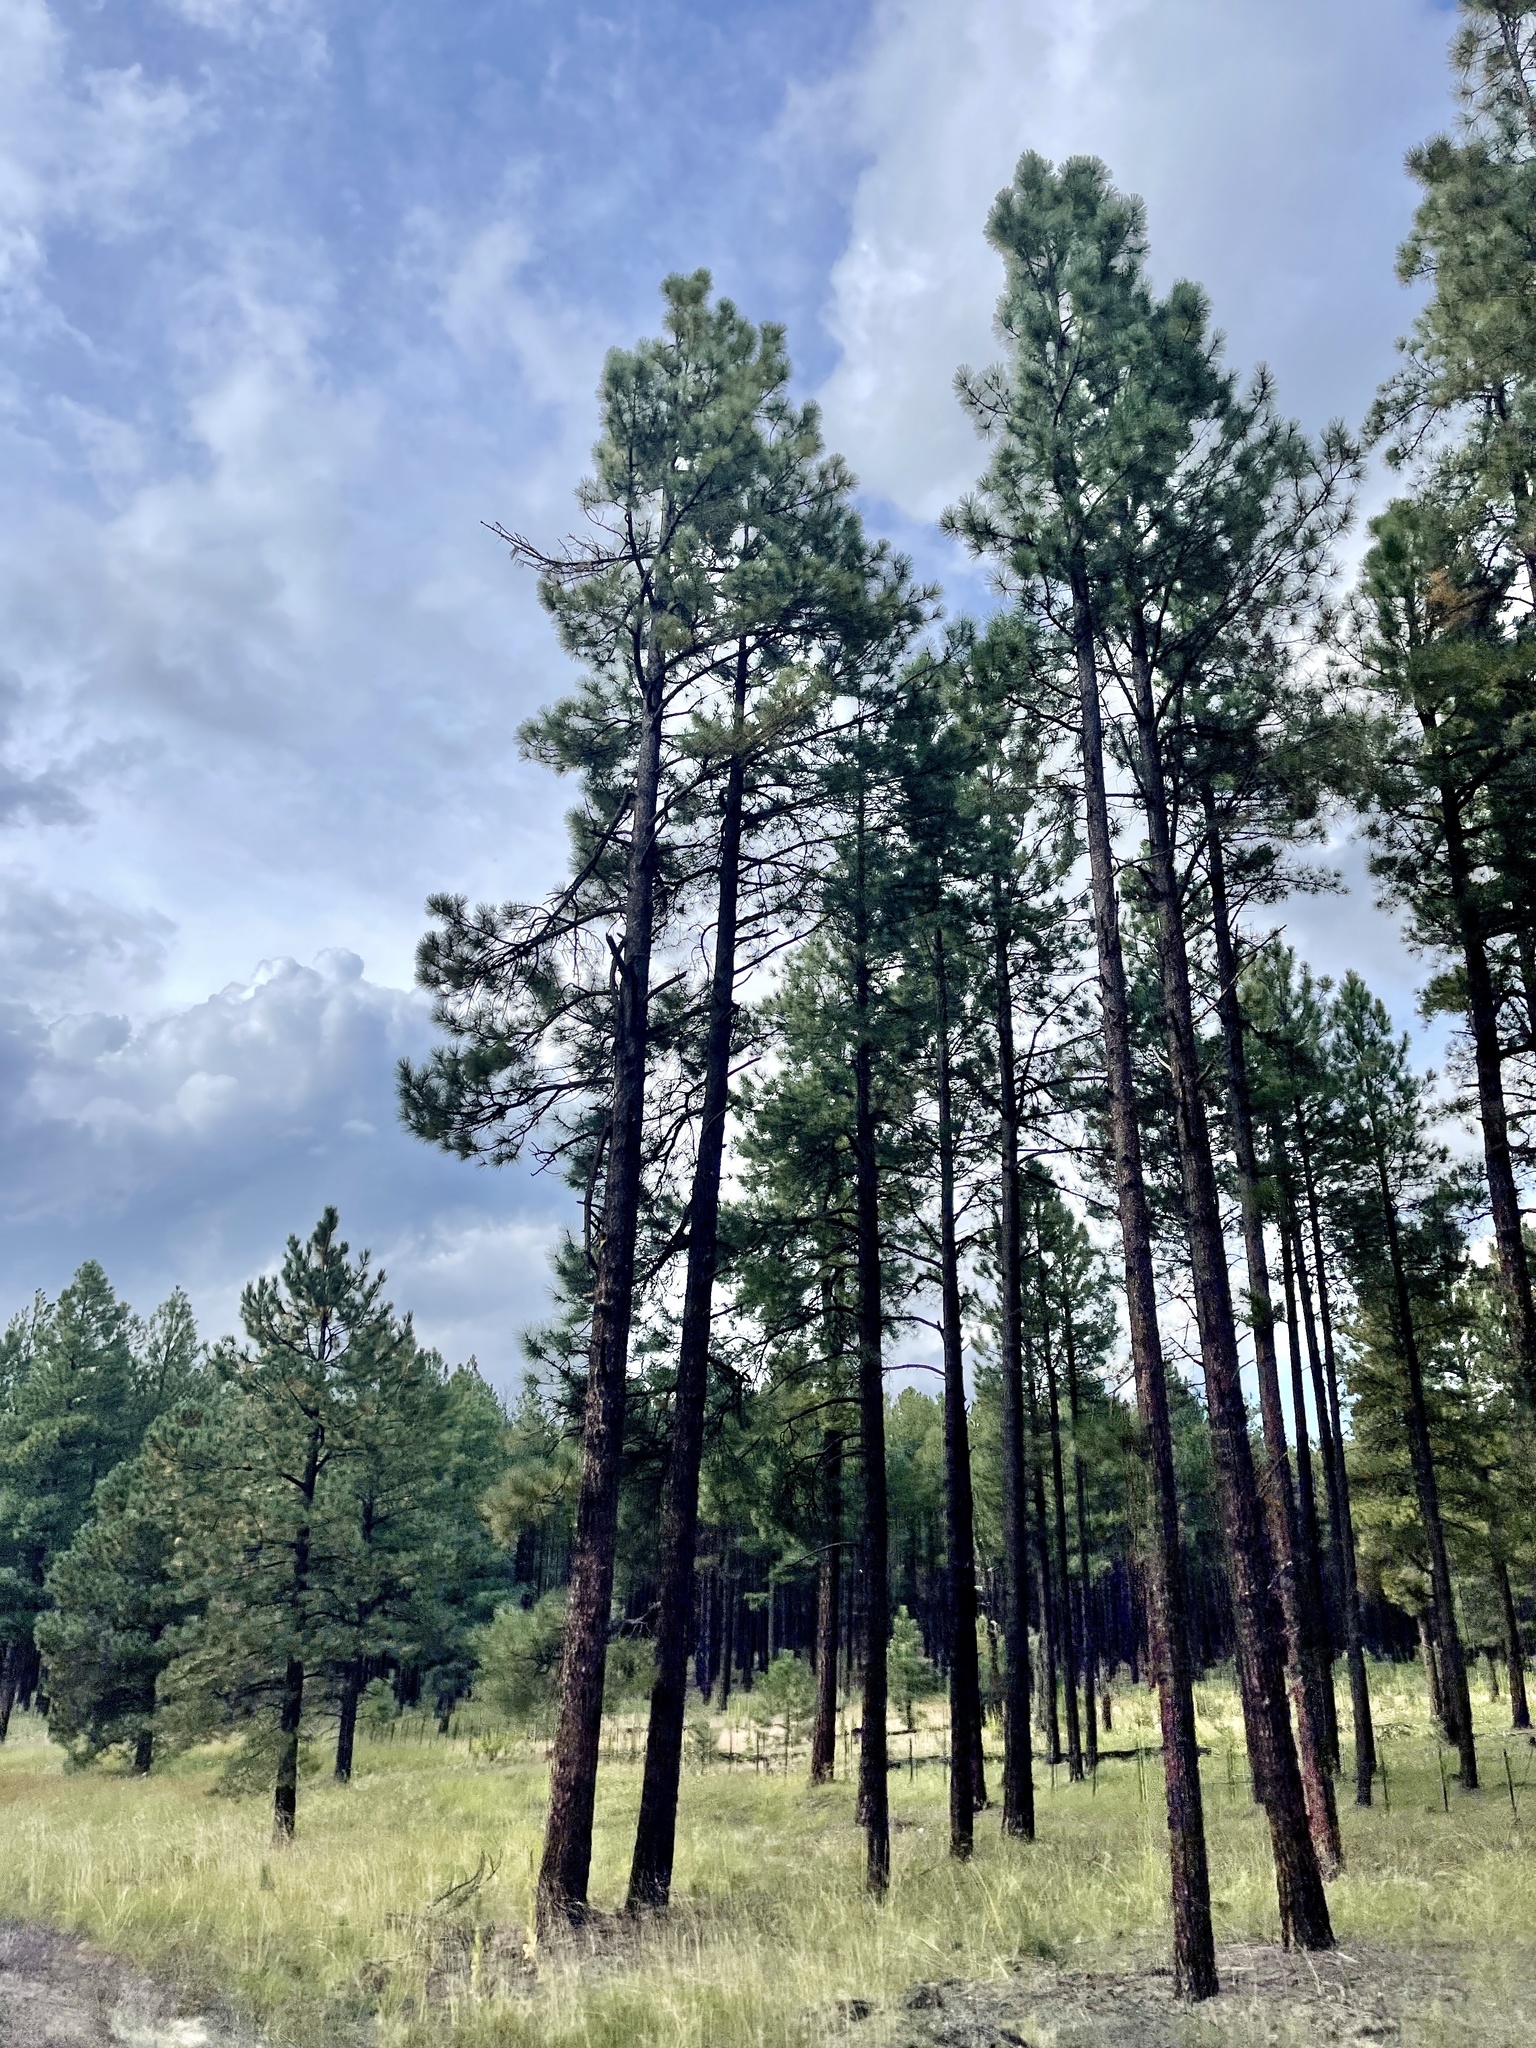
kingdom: Plantae
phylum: Tracheophyta
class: Pinopsida
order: Pinales
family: Pinaceae
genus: Pinus
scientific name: Pinus ponderosa
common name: Western yellow-pine
